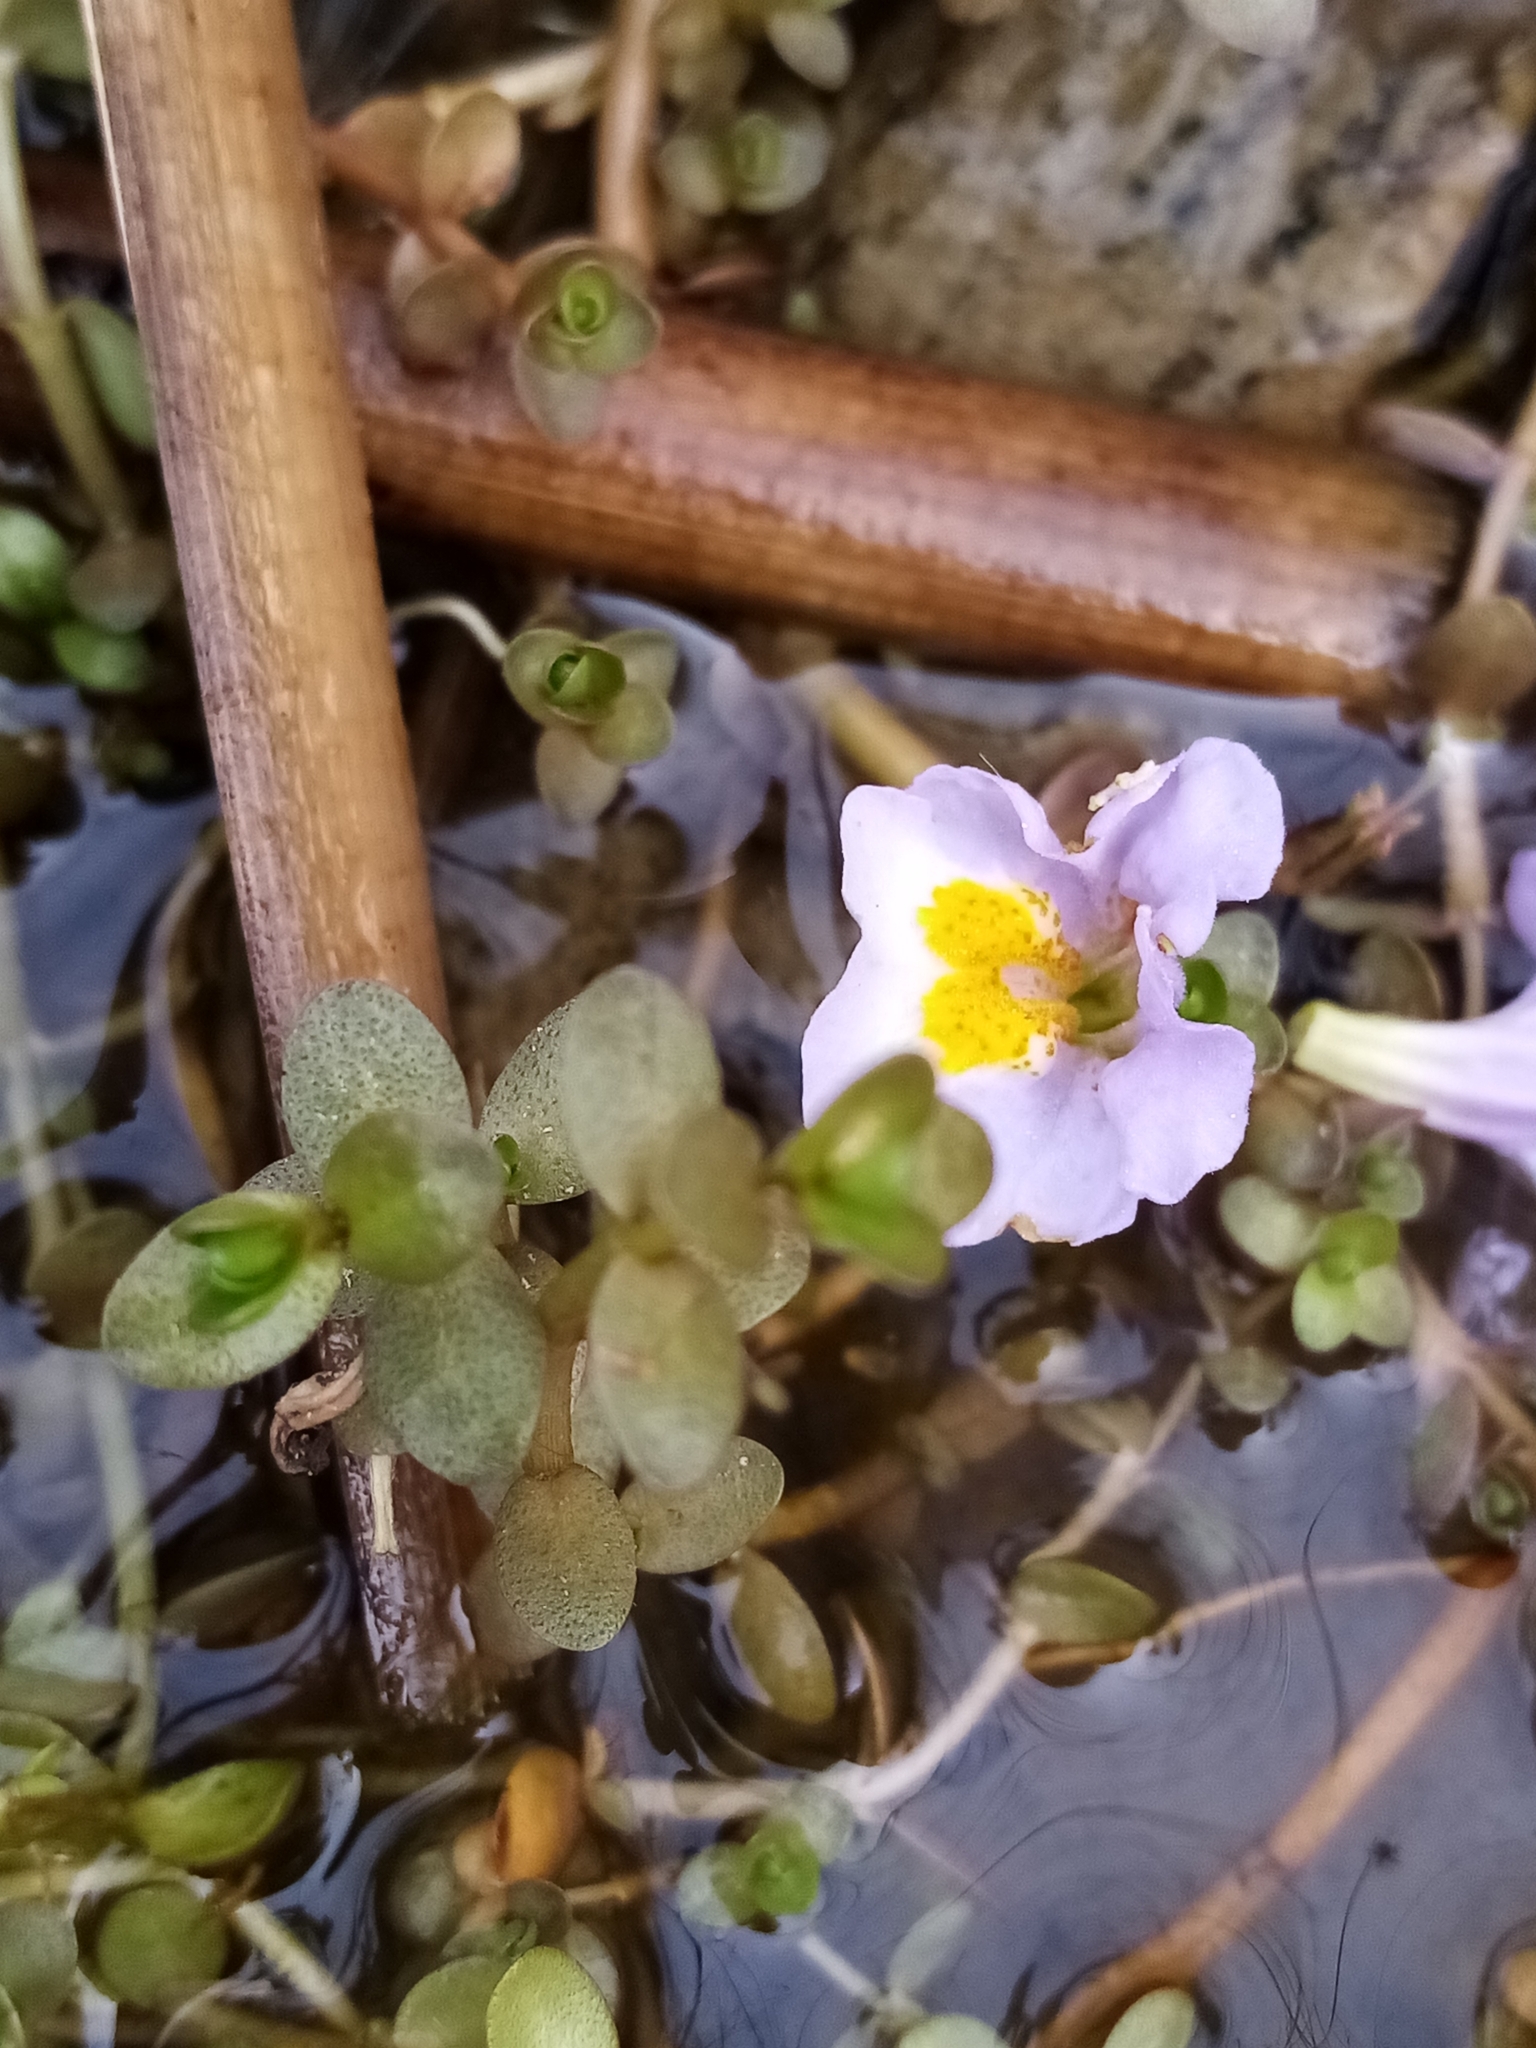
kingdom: Plantae
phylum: Tracheophyta
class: Magnoliopsida
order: Lamiales
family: Phrymaceae
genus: Thyridia
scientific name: Thyridia repens
